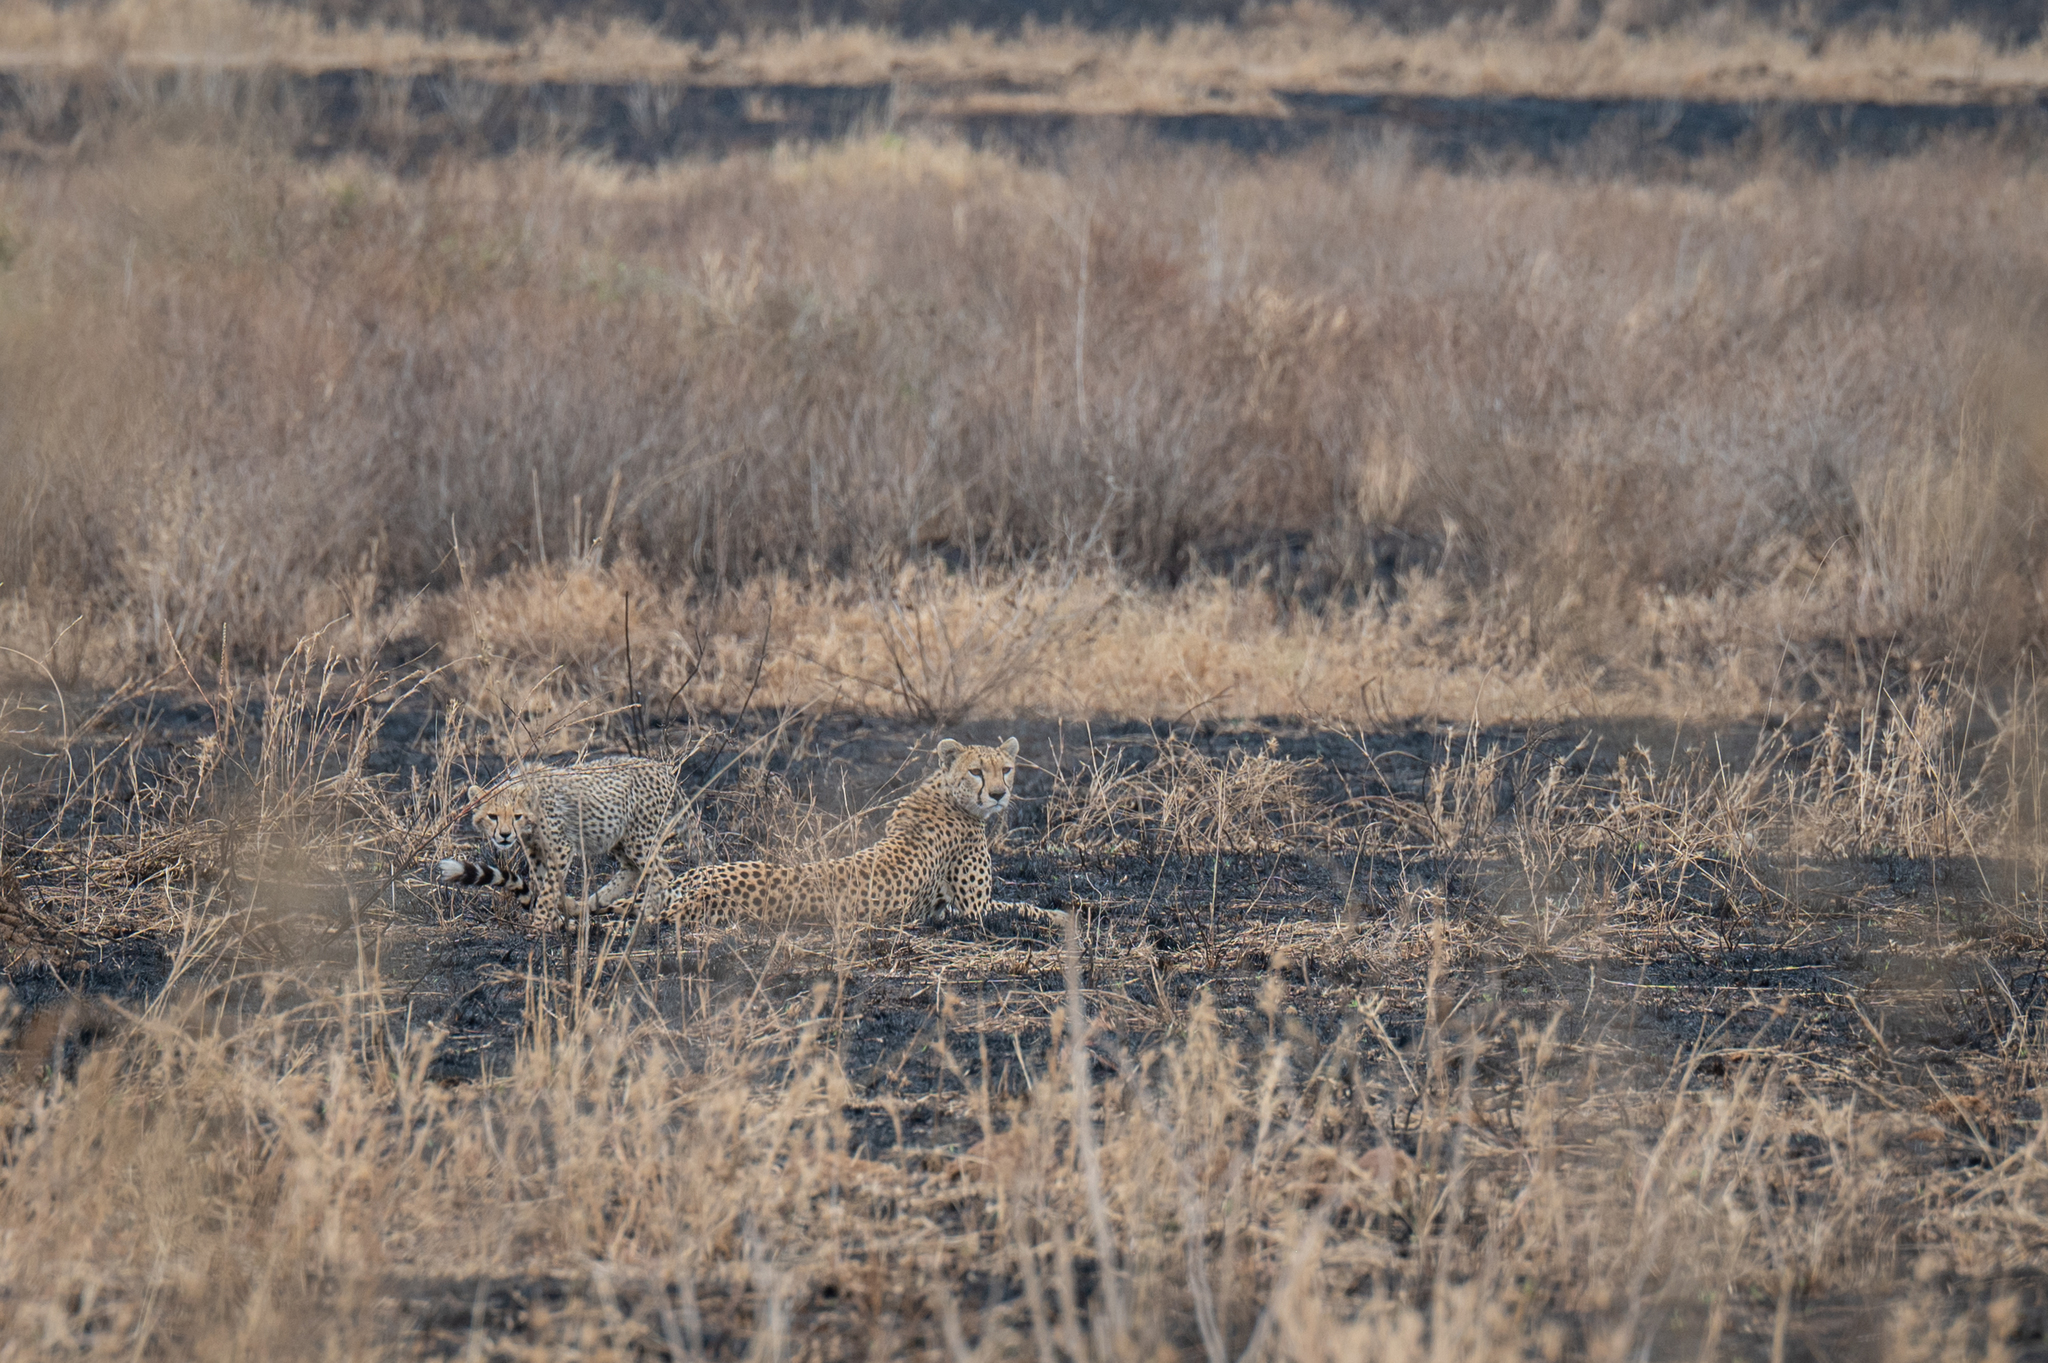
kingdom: Animalia
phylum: Chordata
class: Mammalia
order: Carnivora
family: Felidae
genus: Acinonyx
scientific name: Acinonyx jubatus
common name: Cheetah
